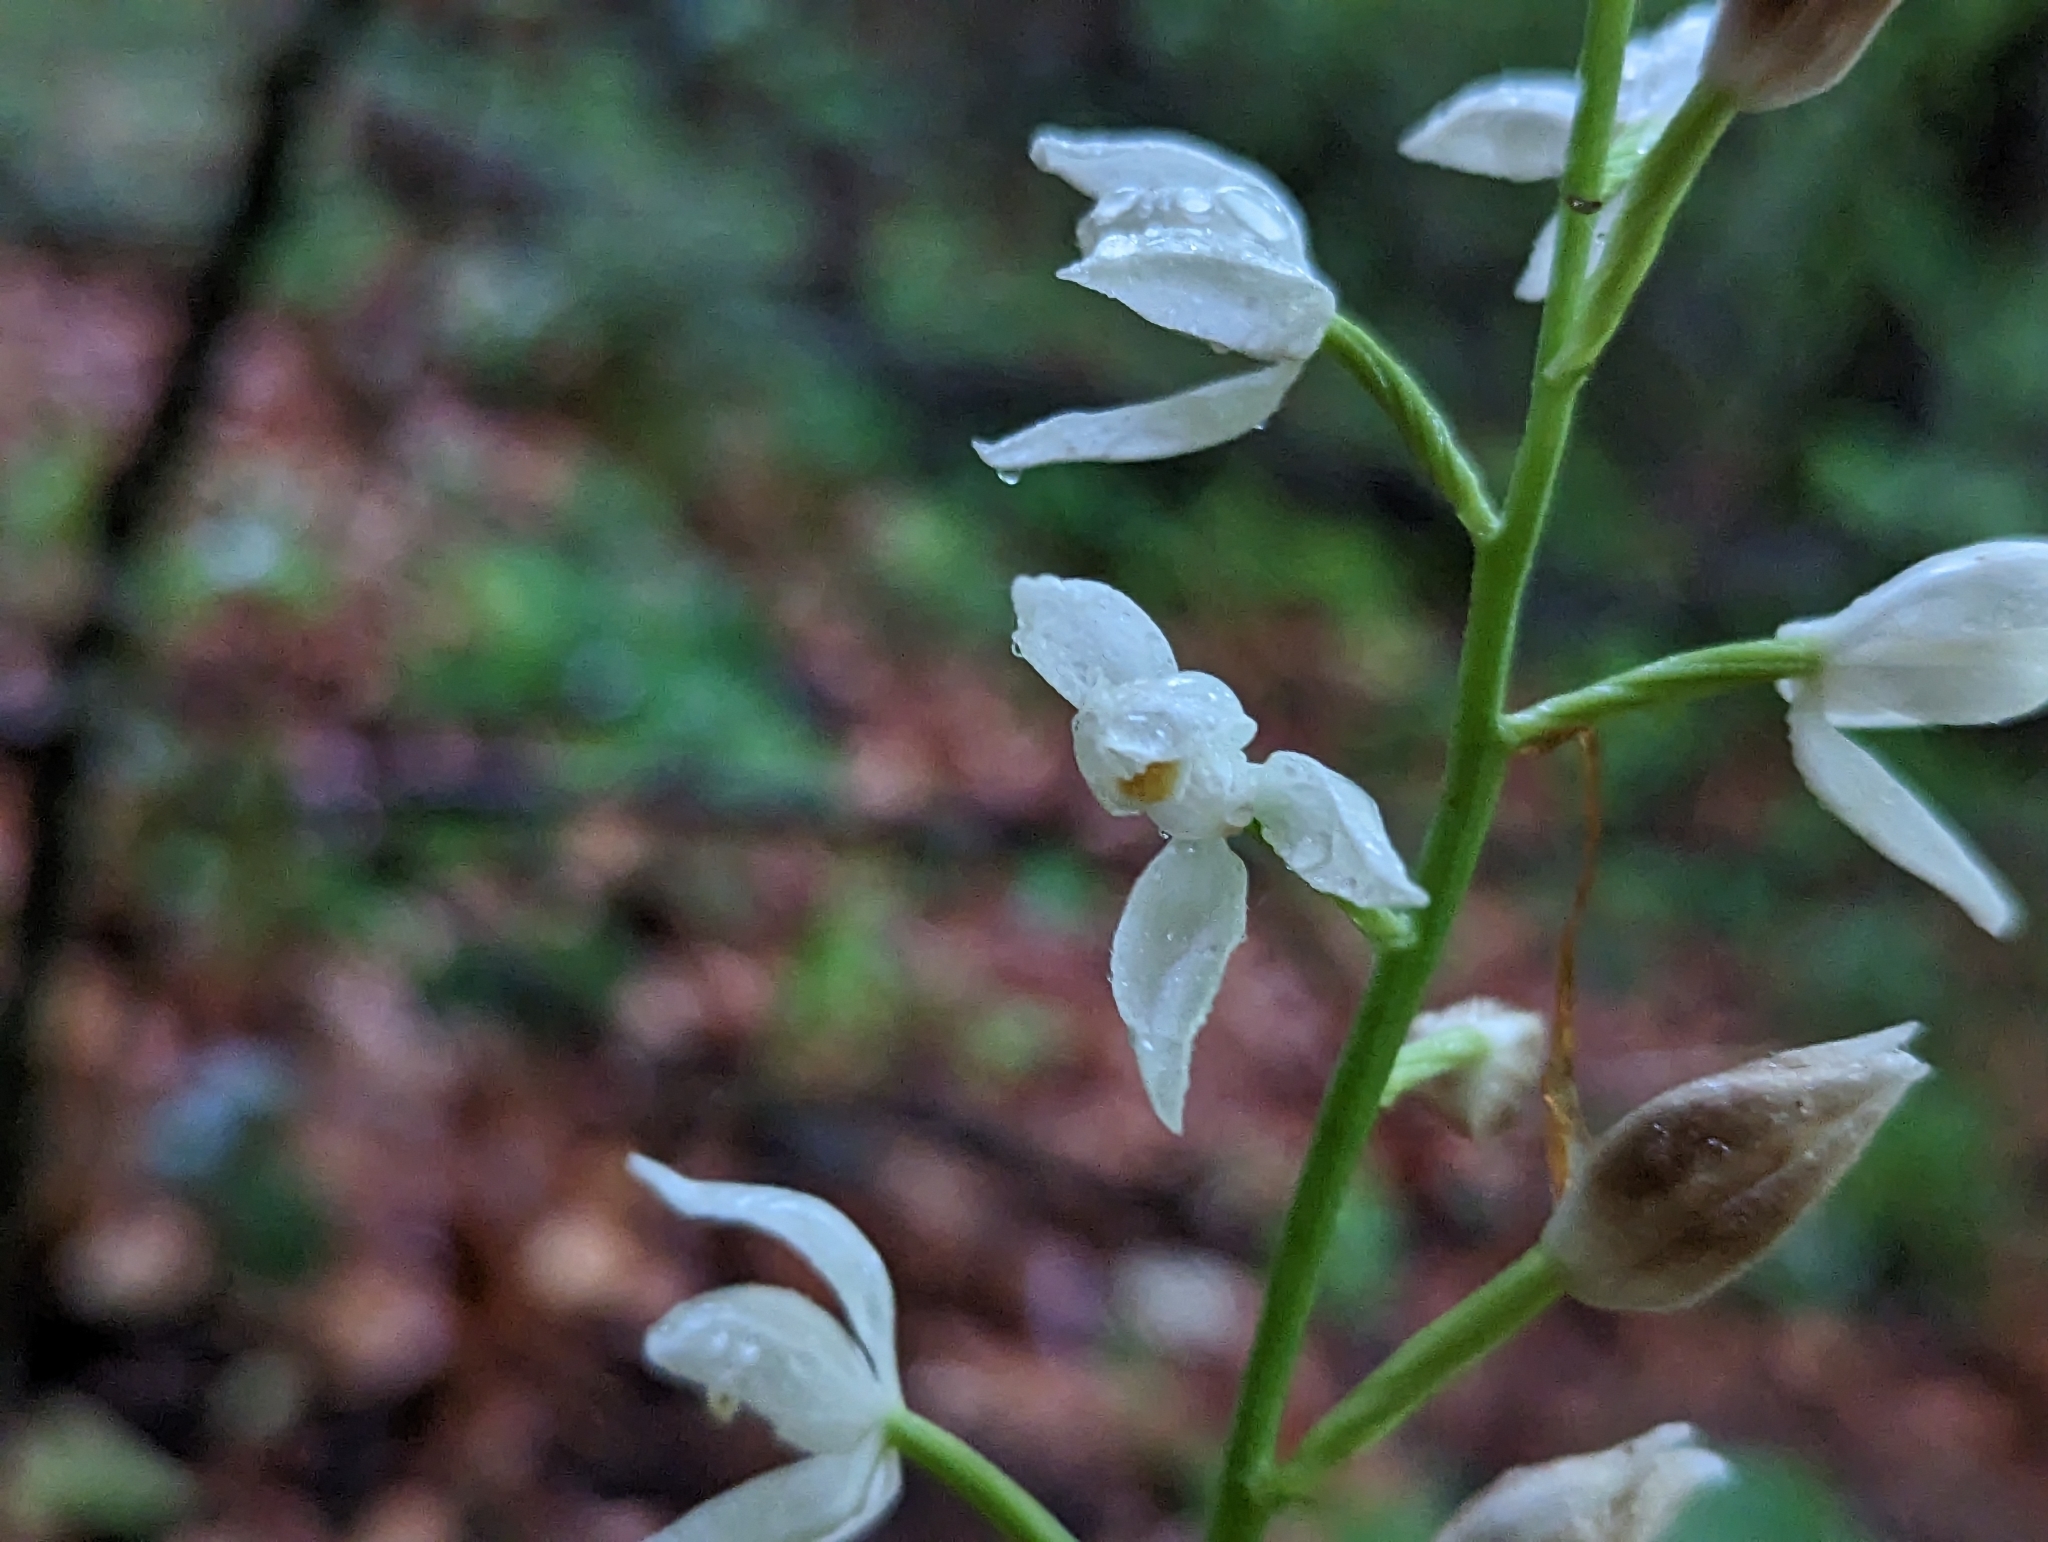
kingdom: Plantae
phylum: Tracheophyta
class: Liliopsida
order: Asparagales
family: Orchidaceae
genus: Cephalanthera
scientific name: Cephalanthera longifolia
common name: Narrow-leaved helleborine
